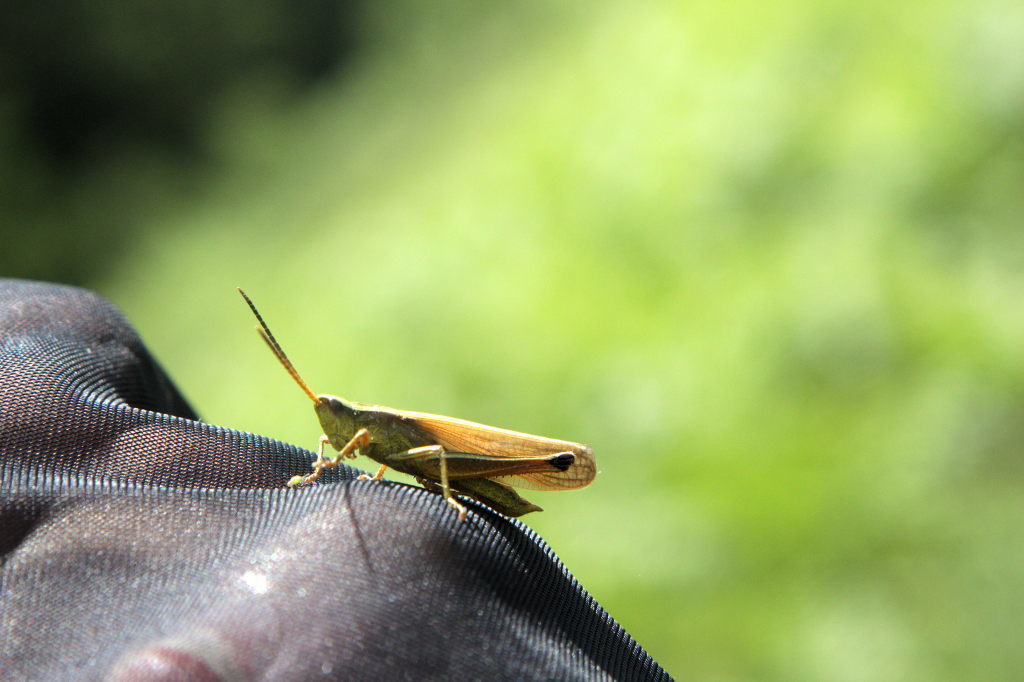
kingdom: Animalia
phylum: Arthropoda
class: Insecta
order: Orthoptera
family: Acrididae
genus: Chrysochraon
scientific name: Chrysochraon dispar
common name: Large gold grasshopper
